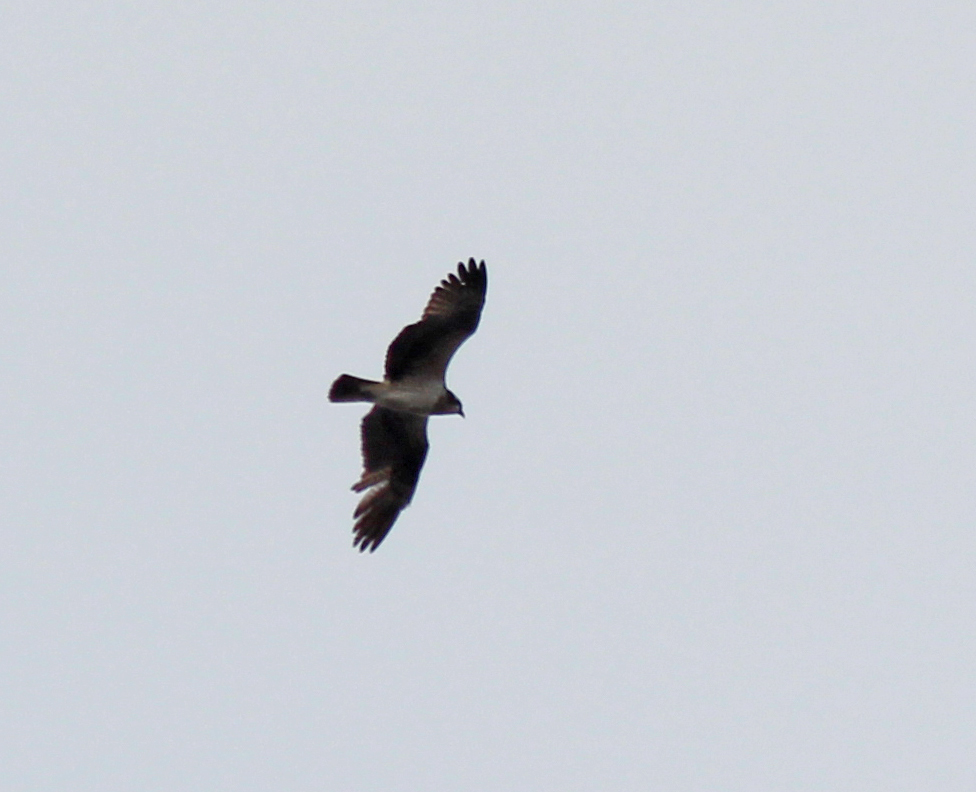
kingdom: Animalia
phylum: Chordata
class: Aves
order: Accipitriformes
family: Pandionidae
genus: Pandion
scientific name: Pandion haliaetus
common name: Osprey
